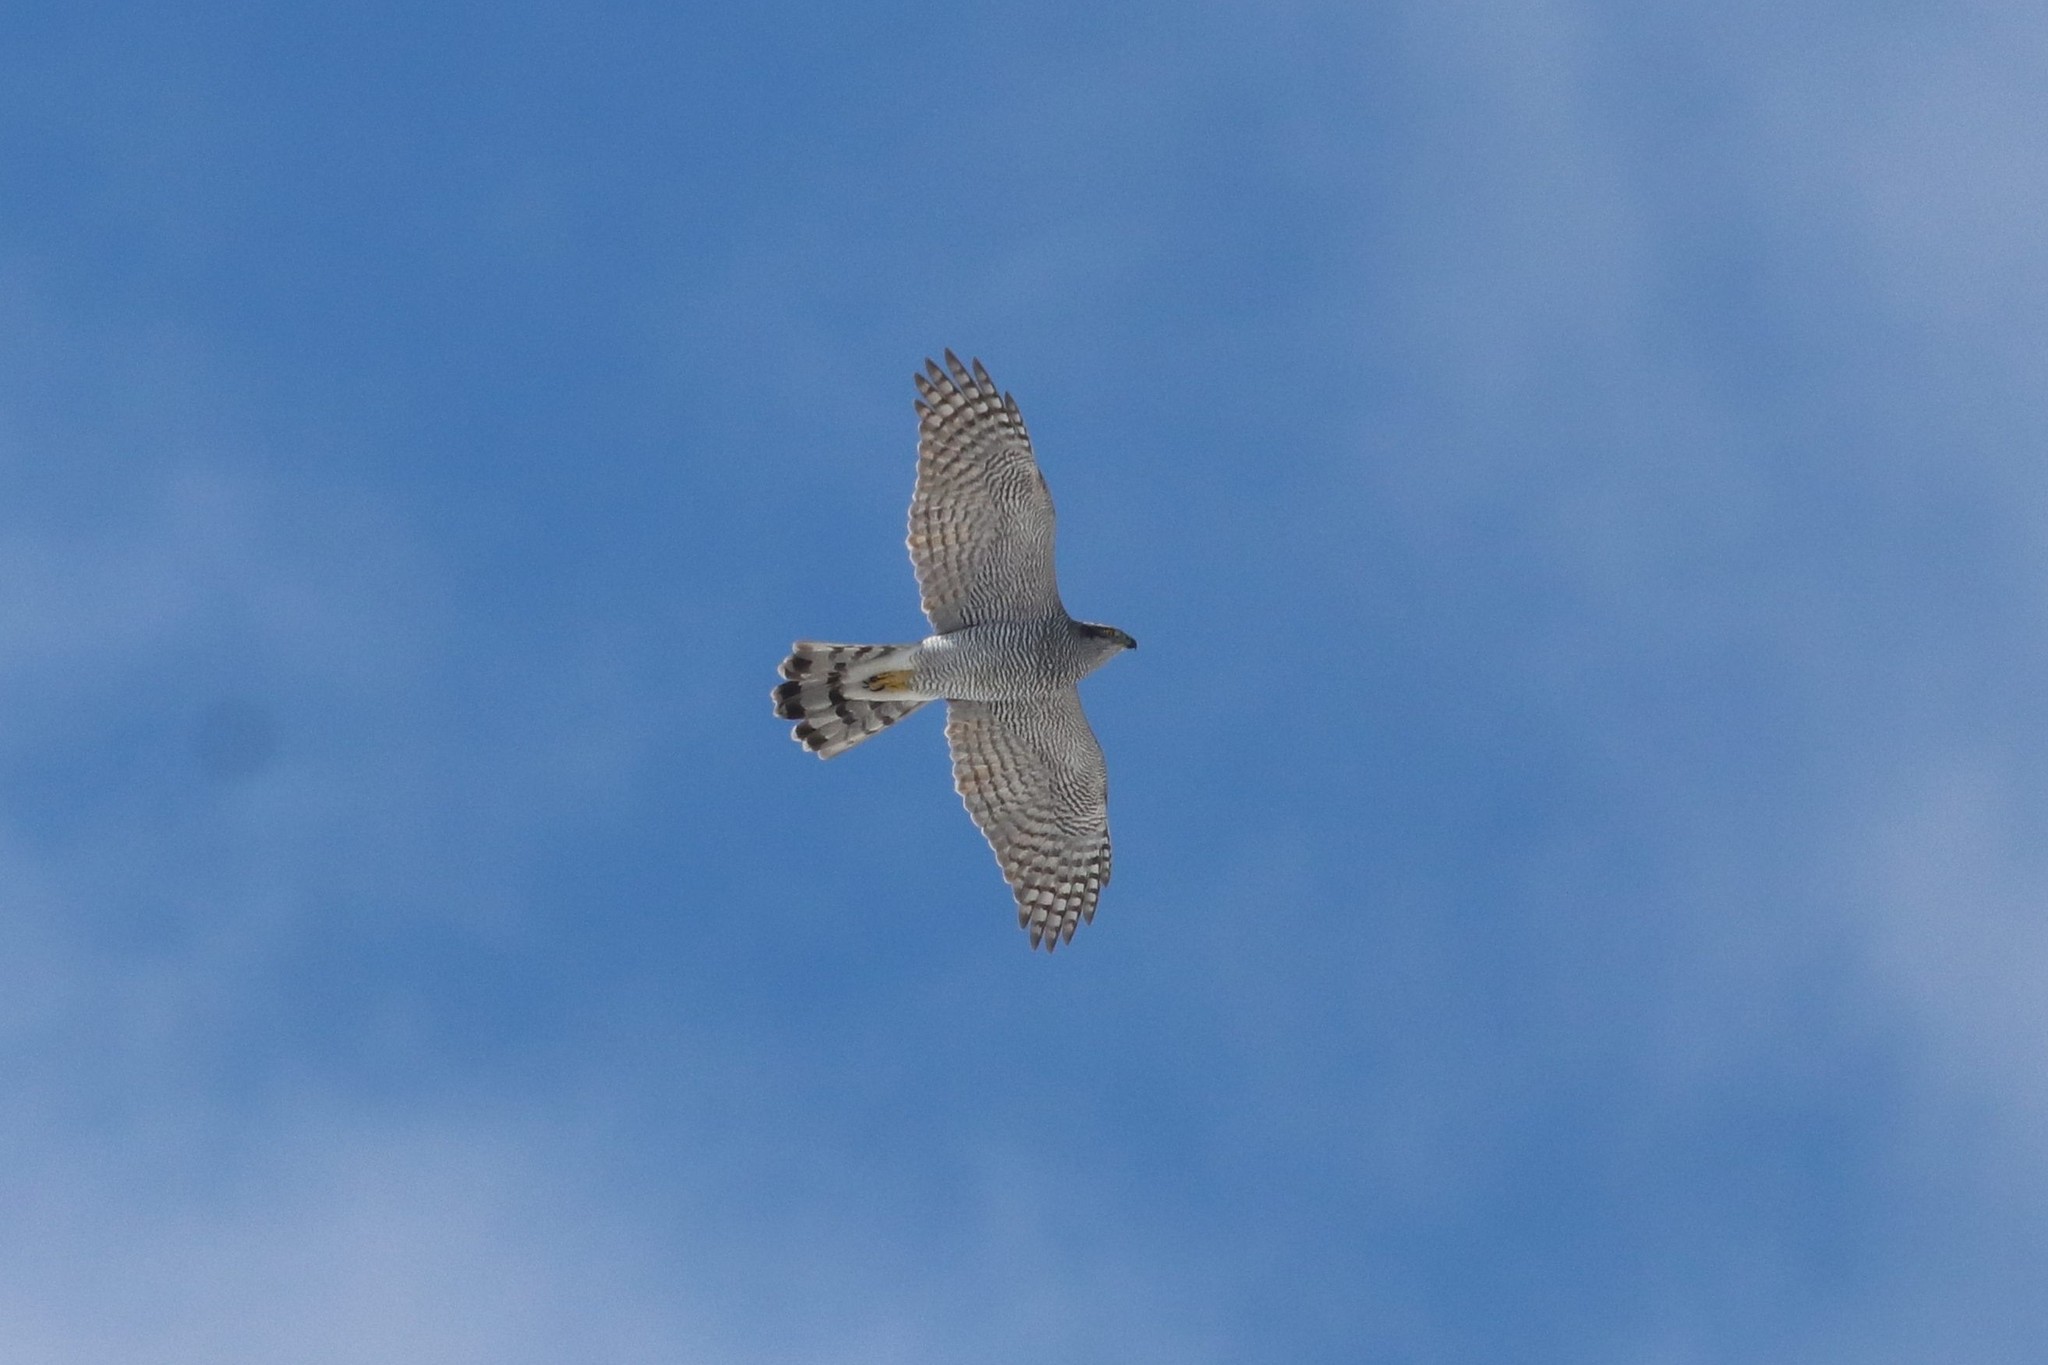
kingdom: Animalia
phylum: Chordata
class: Aves
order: Accipitriformes
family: Accipitridae
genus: Accipiter
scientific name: Accipiter gentilis
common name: Northern goshawk
